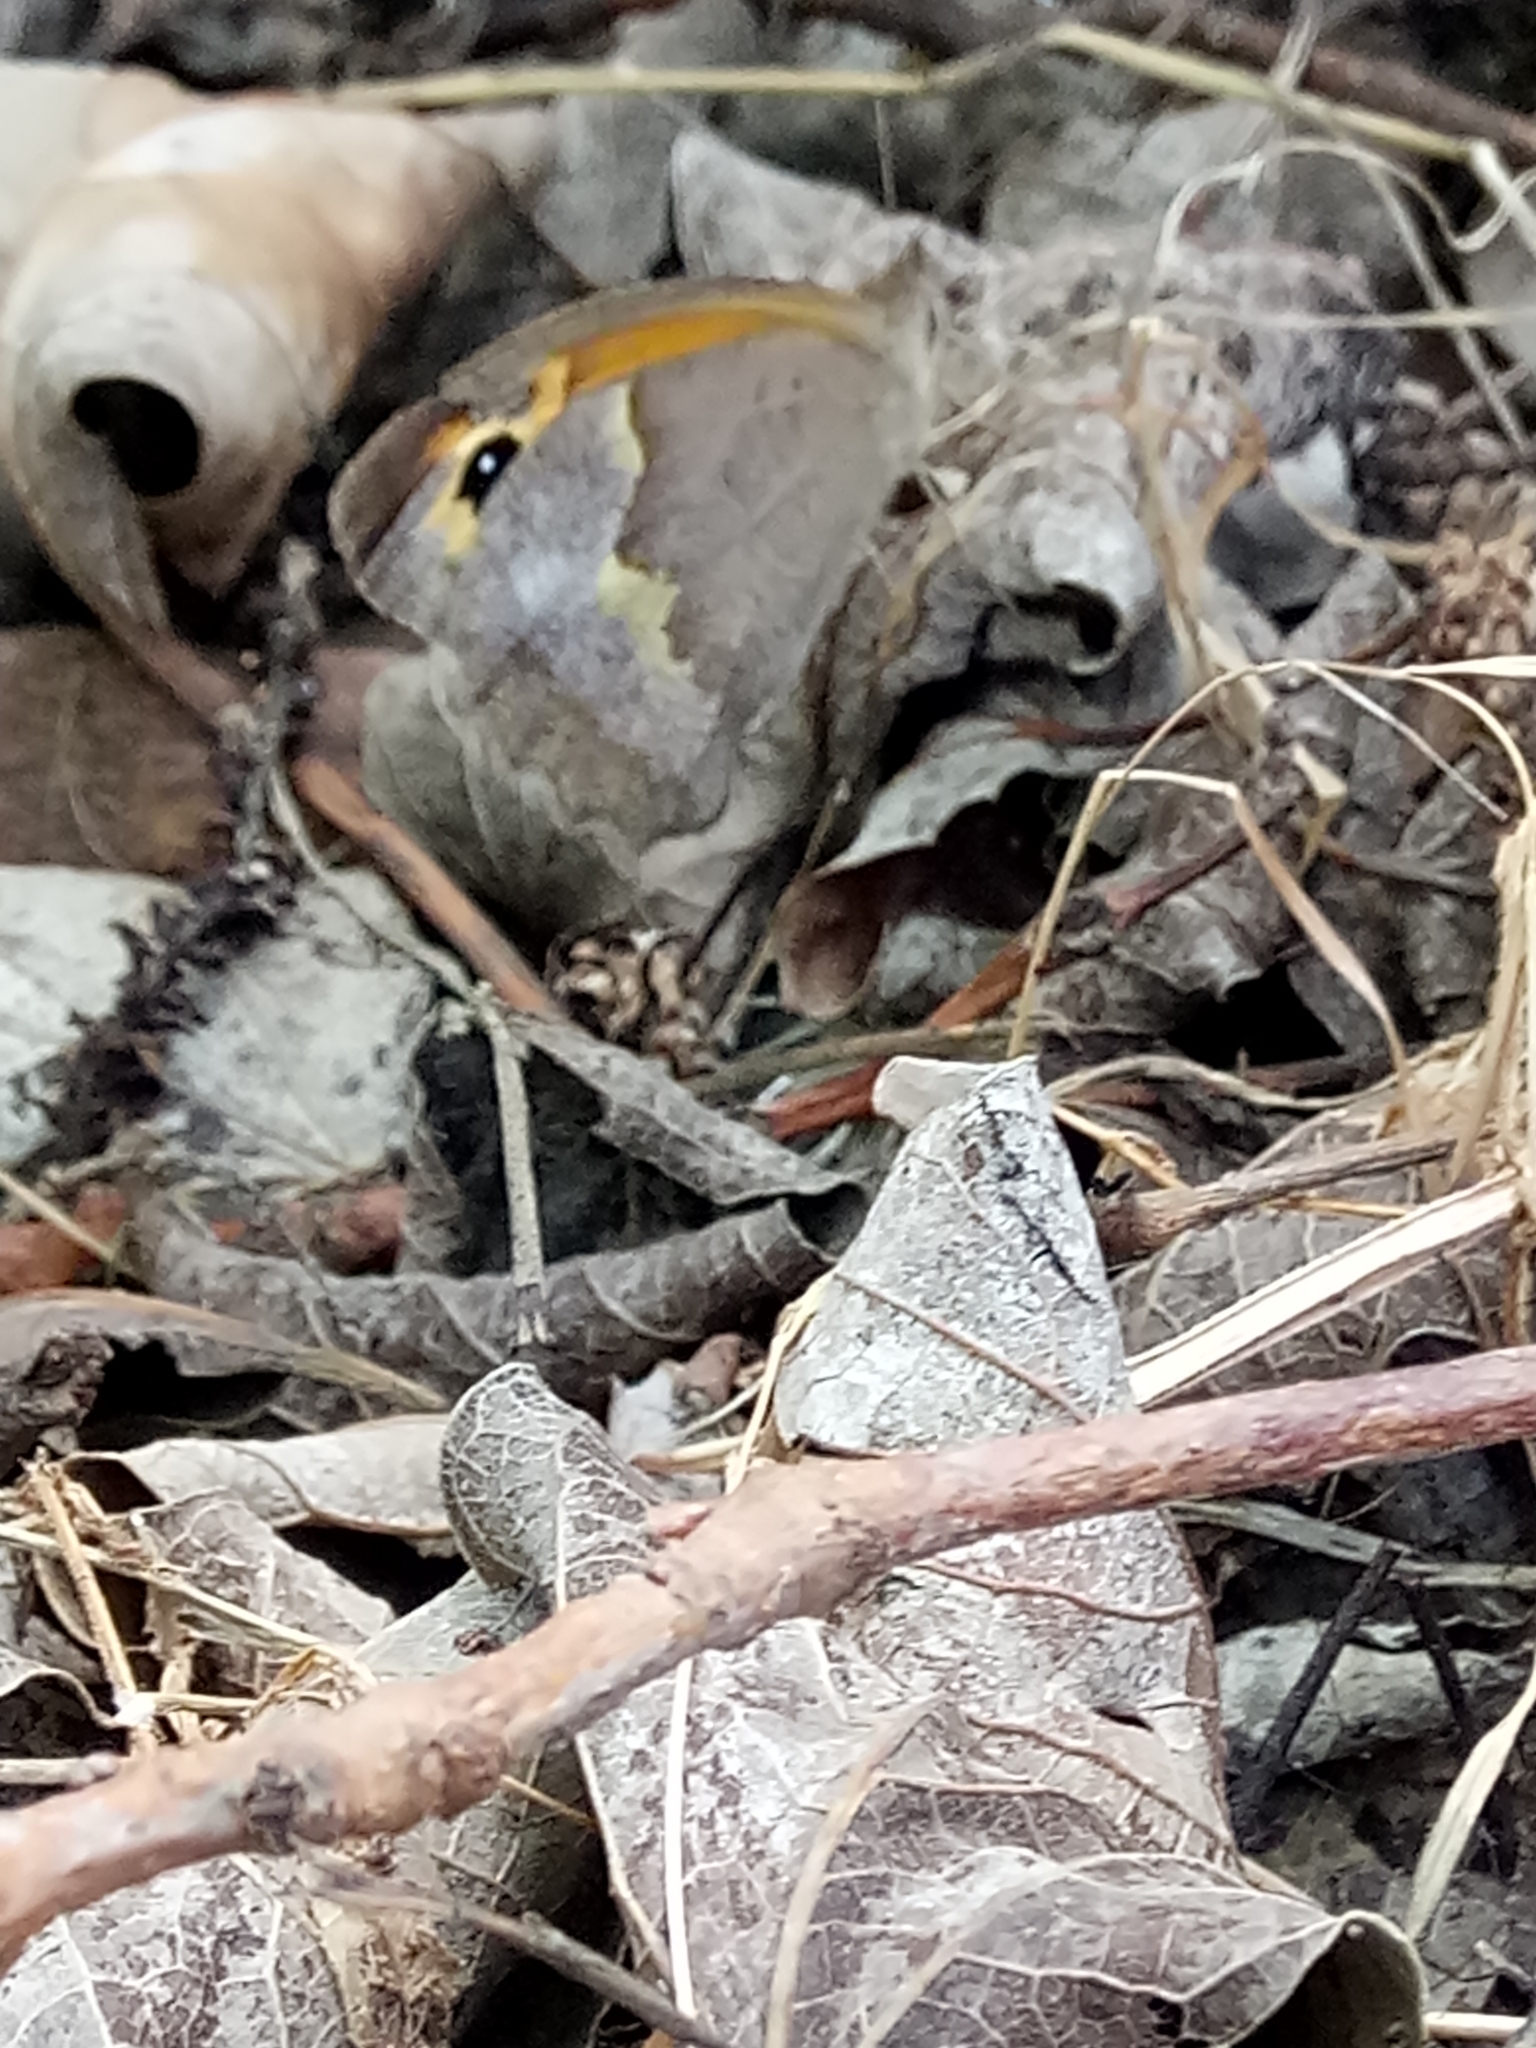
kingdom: Animalia
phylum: Arthropoda
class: Insecta
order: Lepidoptera
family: Nymphalidae
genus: Maniola
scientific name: Maniola jurtina
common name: Meadow brown
